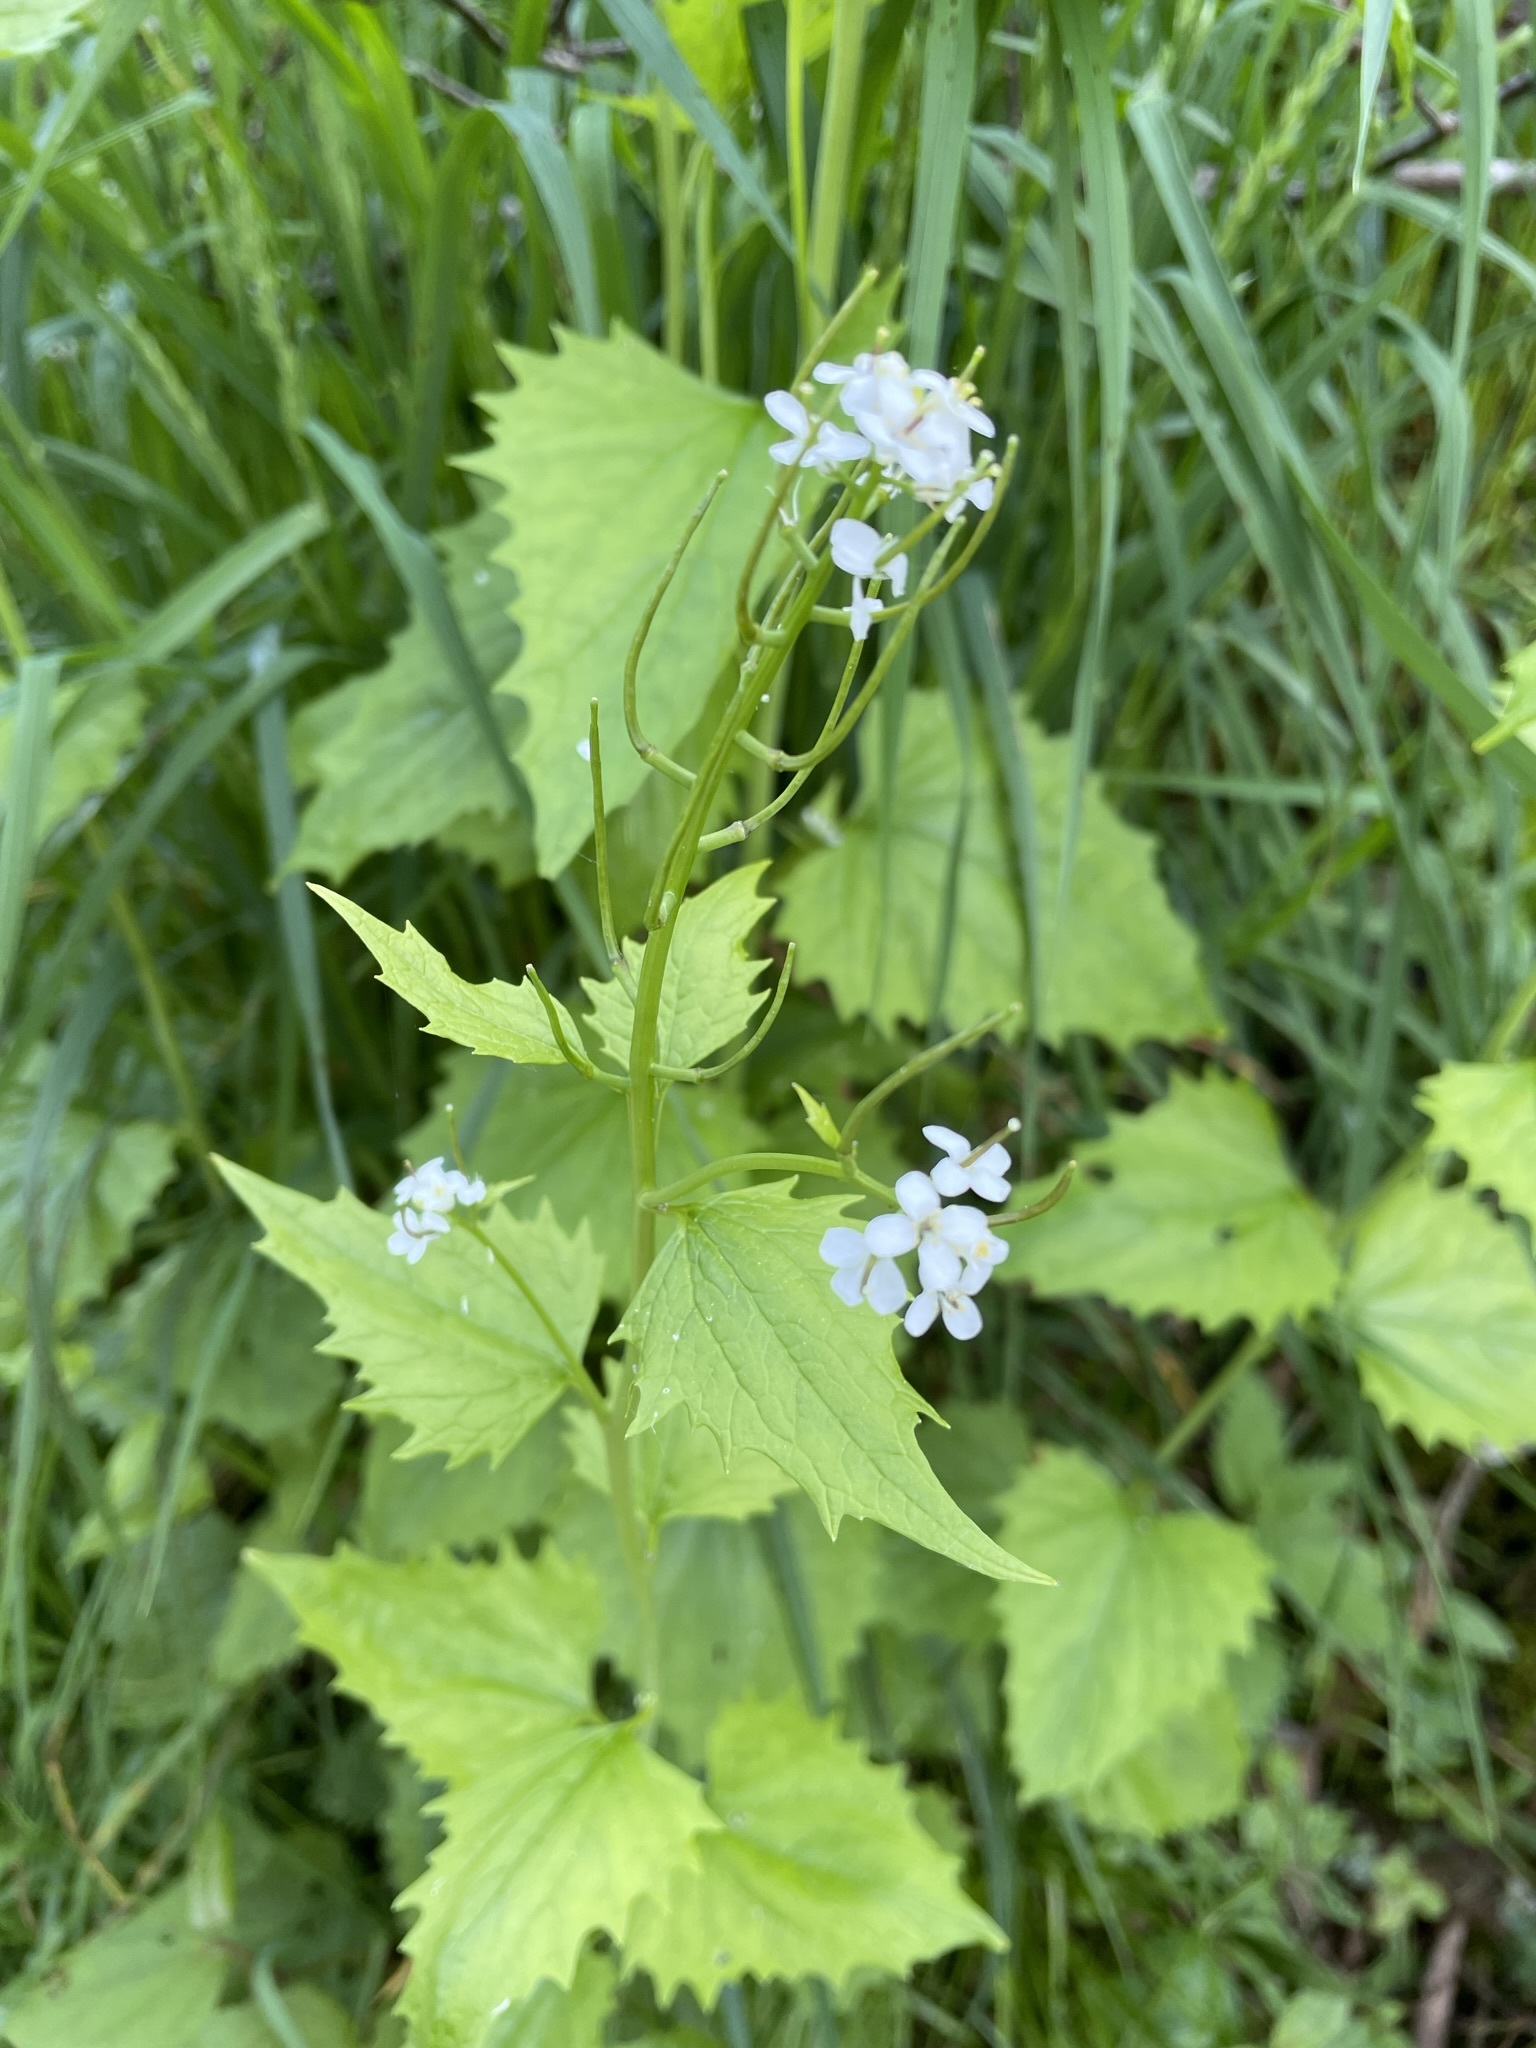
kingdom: Plantae
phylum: Tracheophyta
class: Magnoliopsida
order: Brassicales
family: Brassicaceae
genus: Alliaria
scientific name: Alliaria petiolata
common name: Garlic mustard
